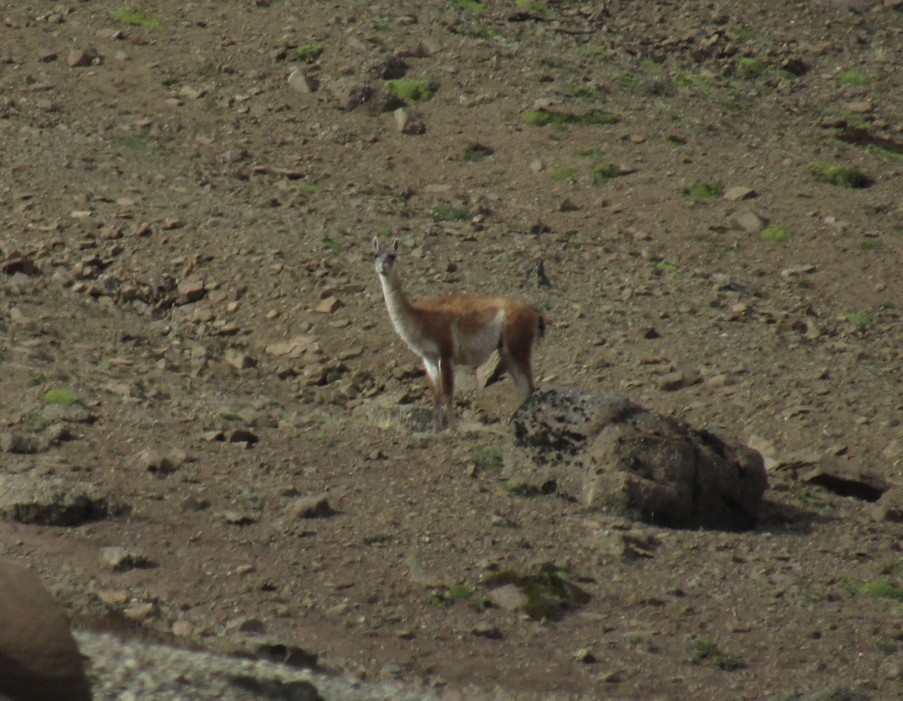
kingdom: Animalia
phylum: Chordata
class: Mammalia
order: Artiodactyla
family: Camelidae
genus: Lama
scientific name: Lama glama
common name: Llama
